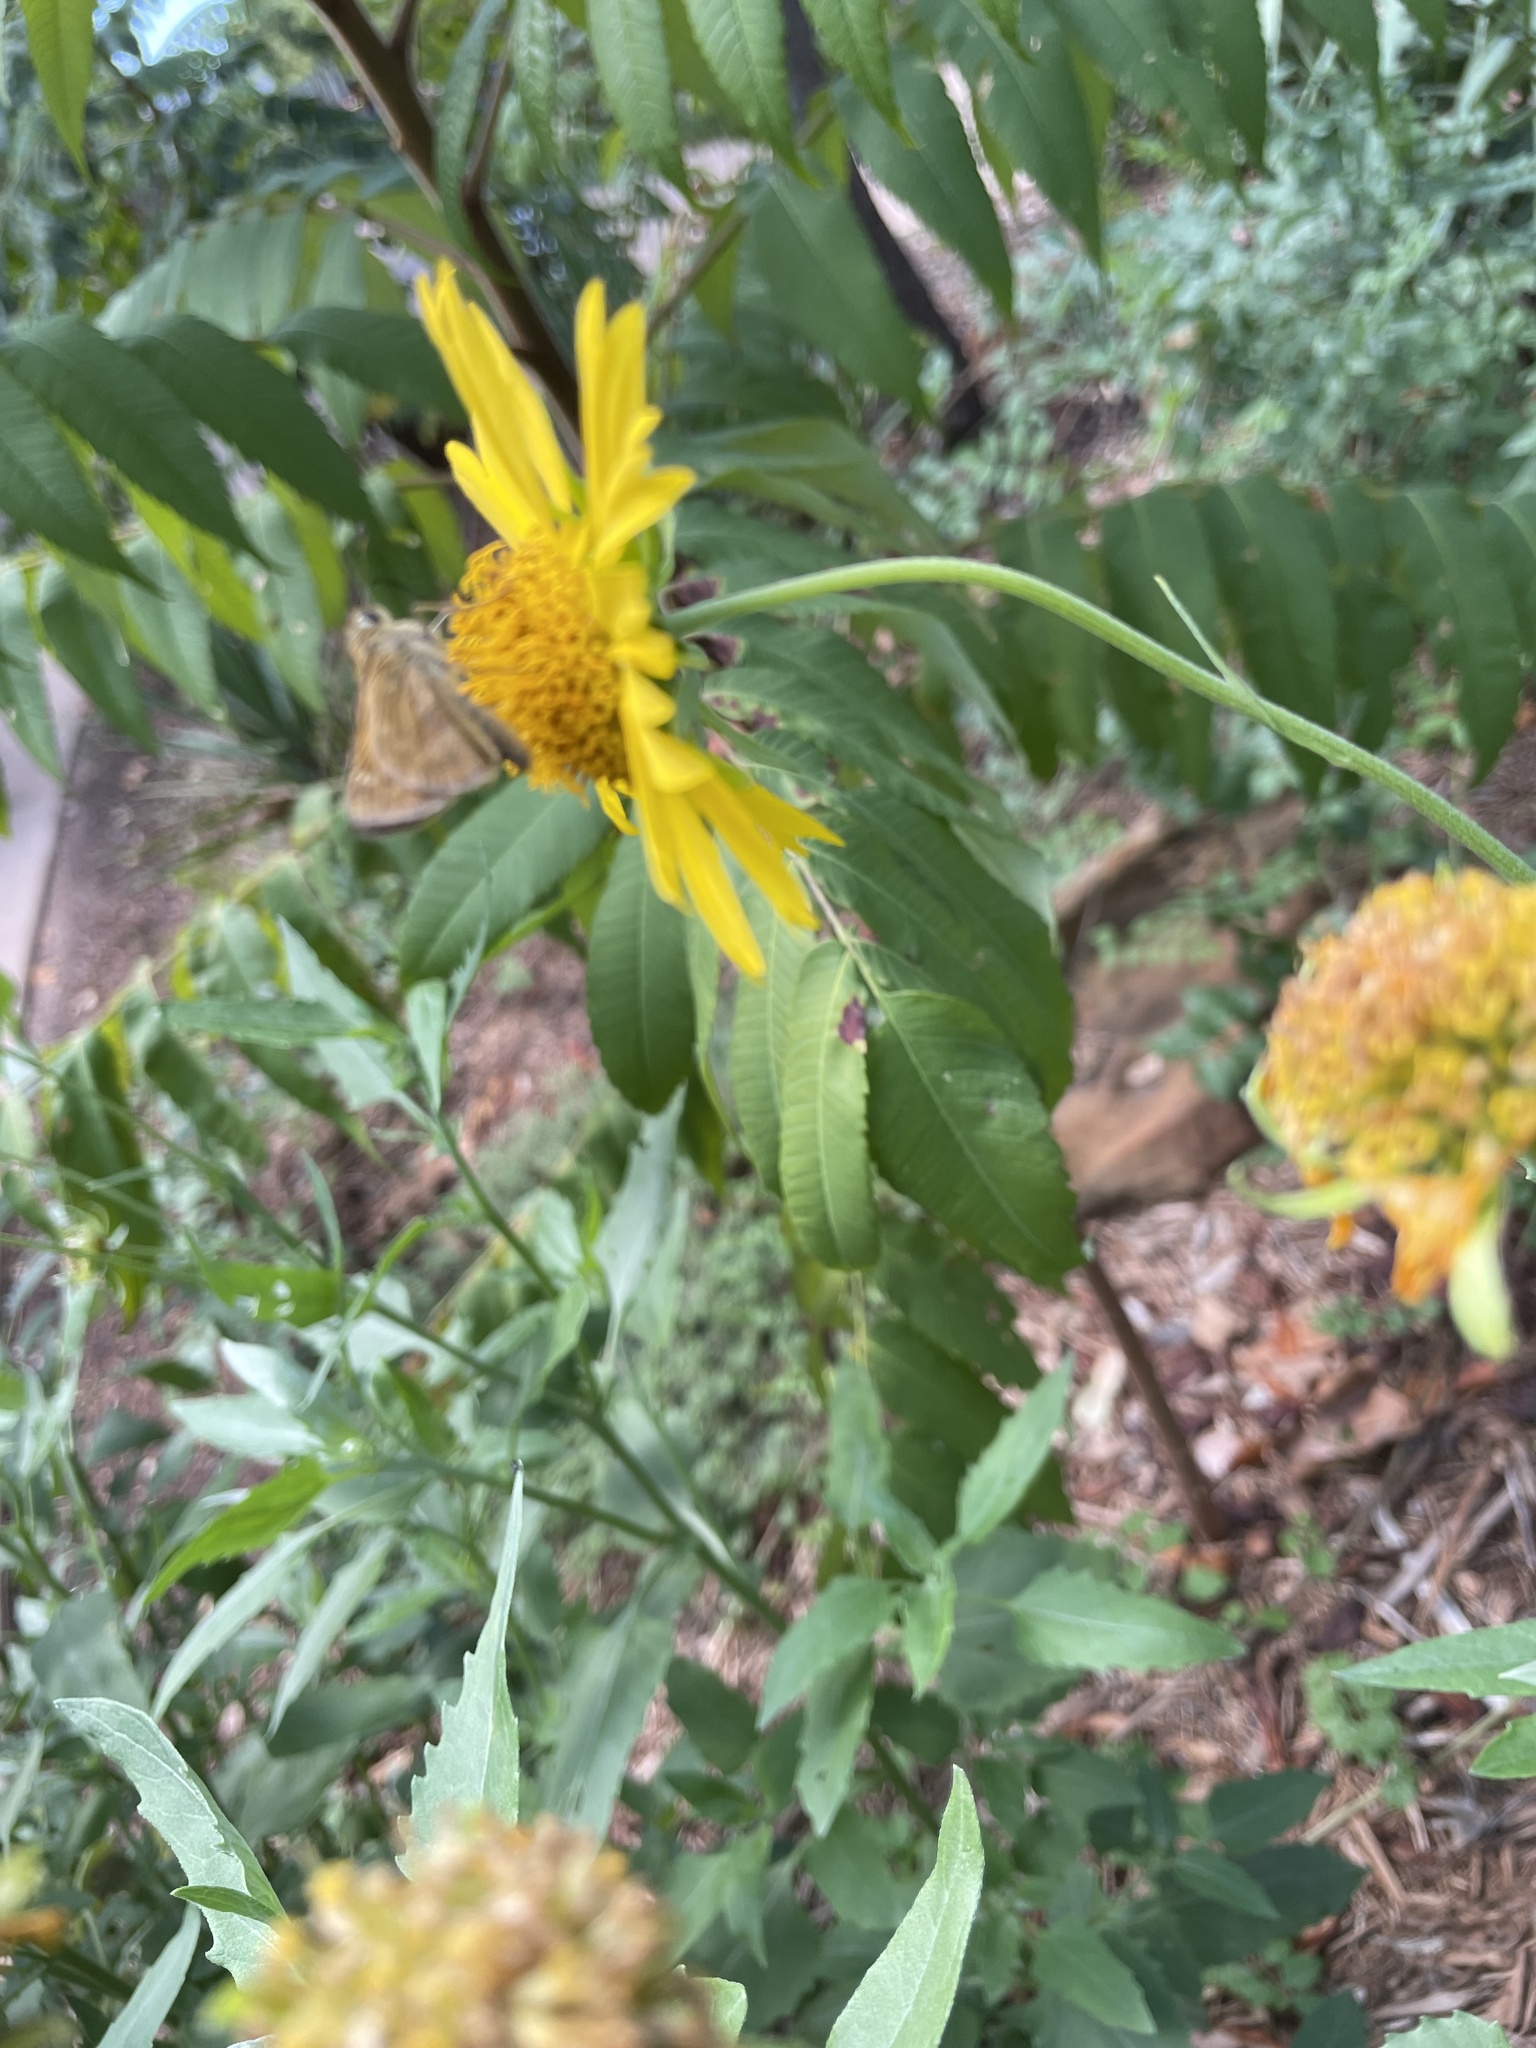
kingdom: Animalia
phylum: Arthropoda
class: Insecta
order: Lepidoptera
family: Hesperiidae
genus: Atalopedes
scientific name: Atalopedes
